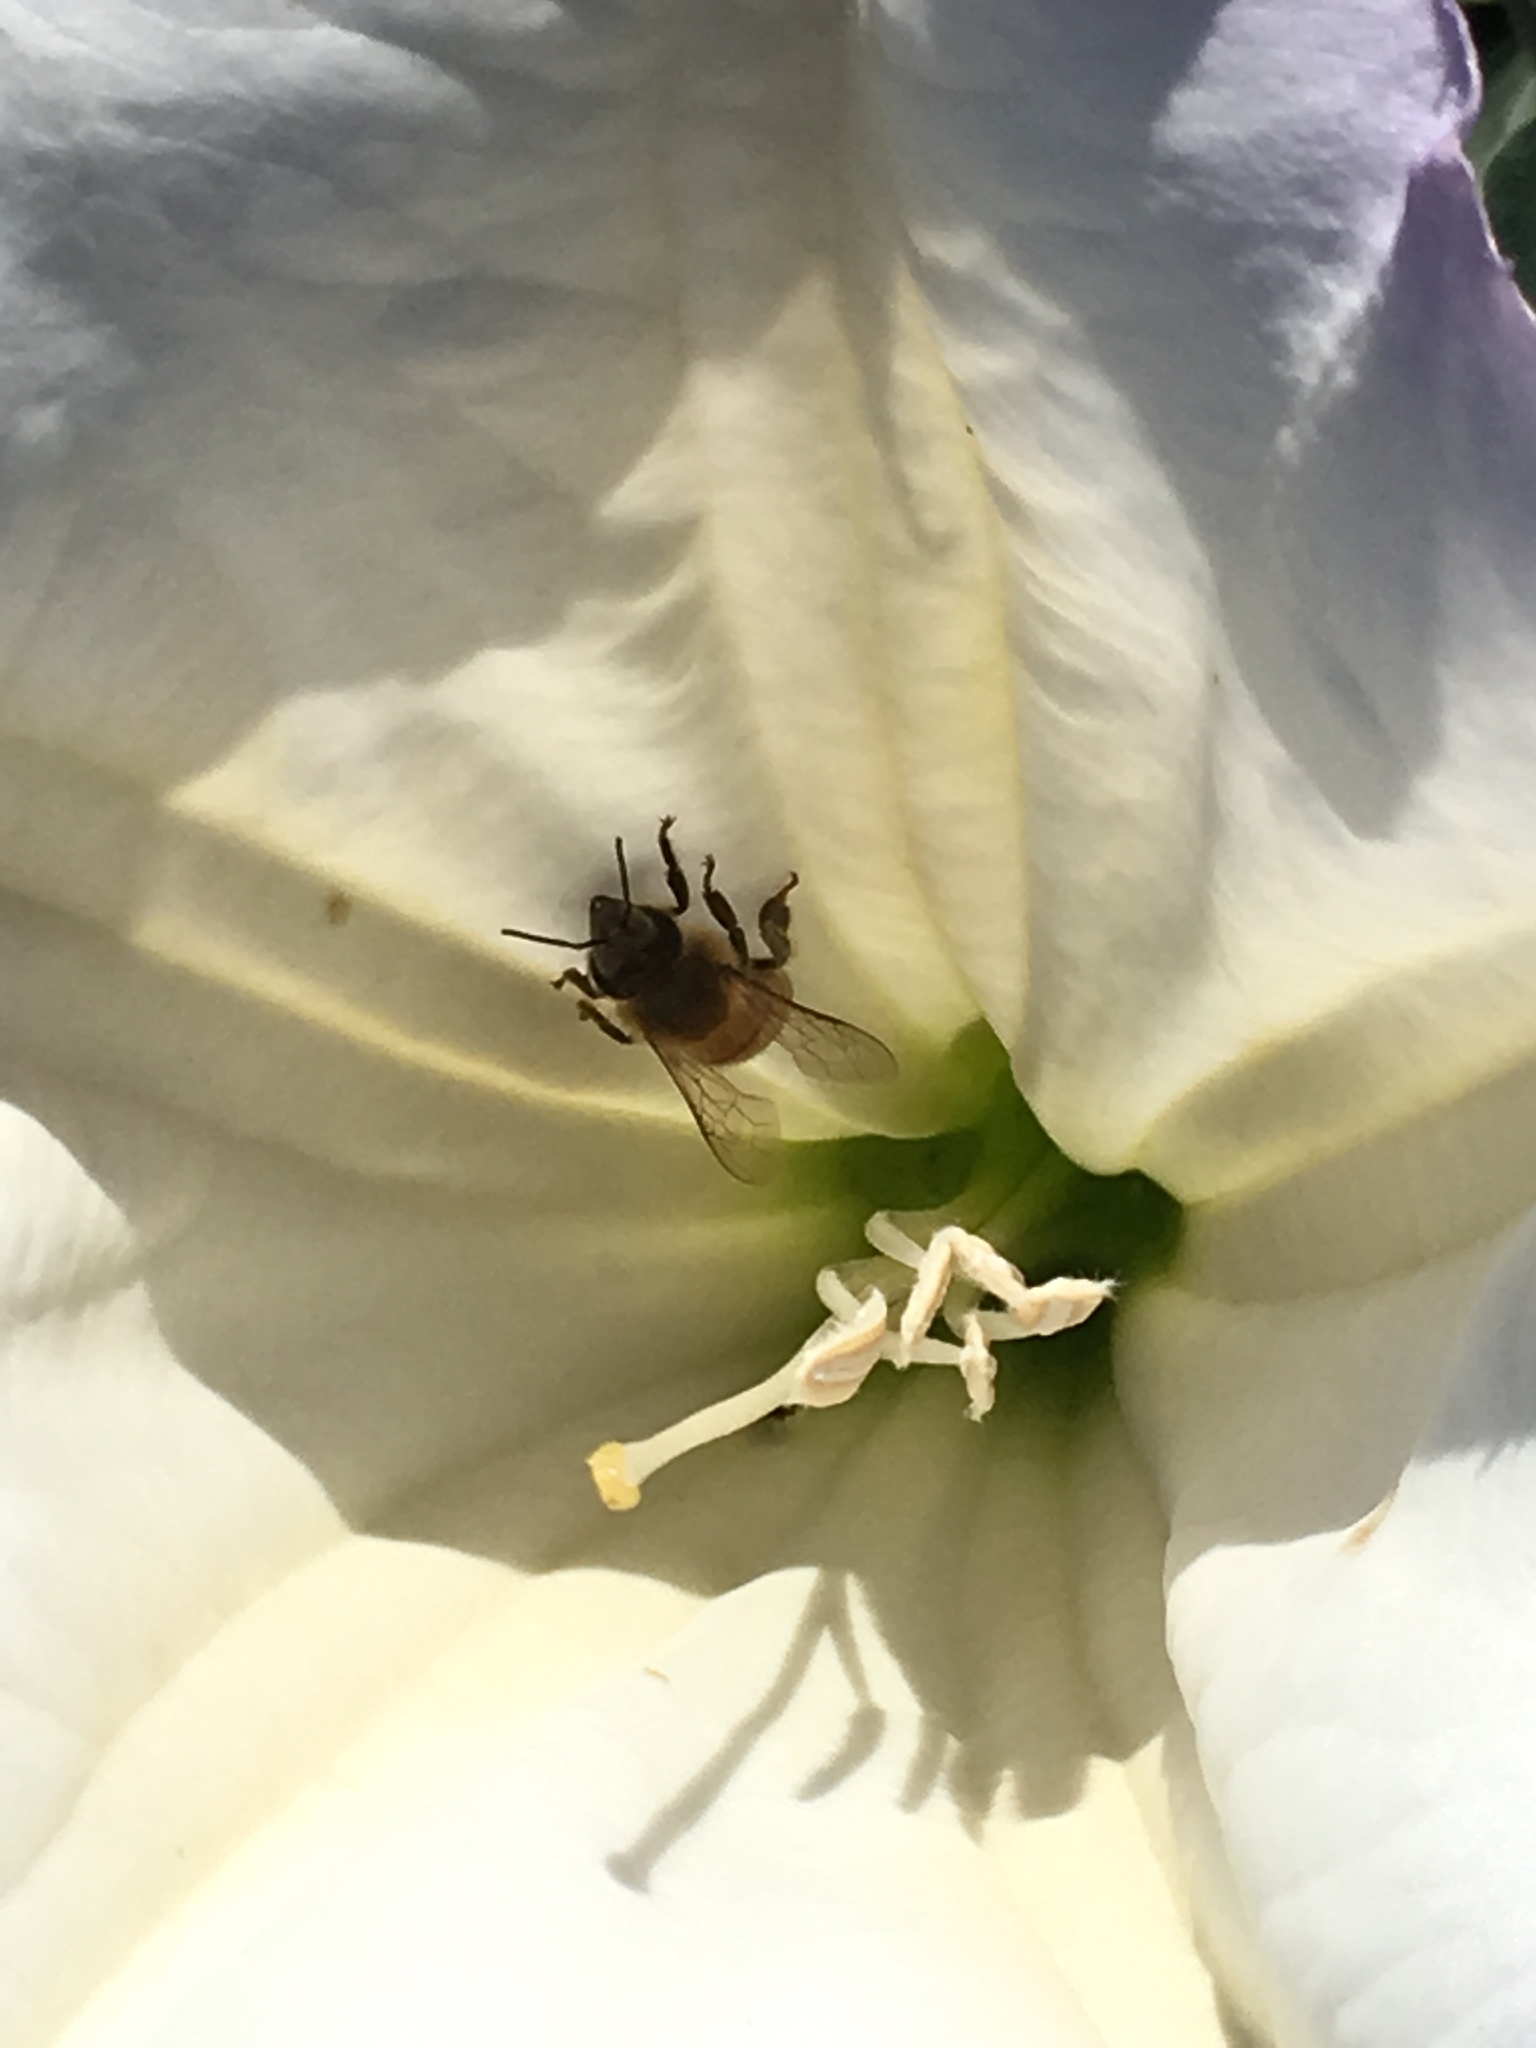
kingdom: Plantae
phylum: Tracheophyta
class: Magnoliopsida
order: Solanales
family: Solanaceae
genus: Datura
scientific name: Datura wrightii
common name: Sacred thorn-apple
